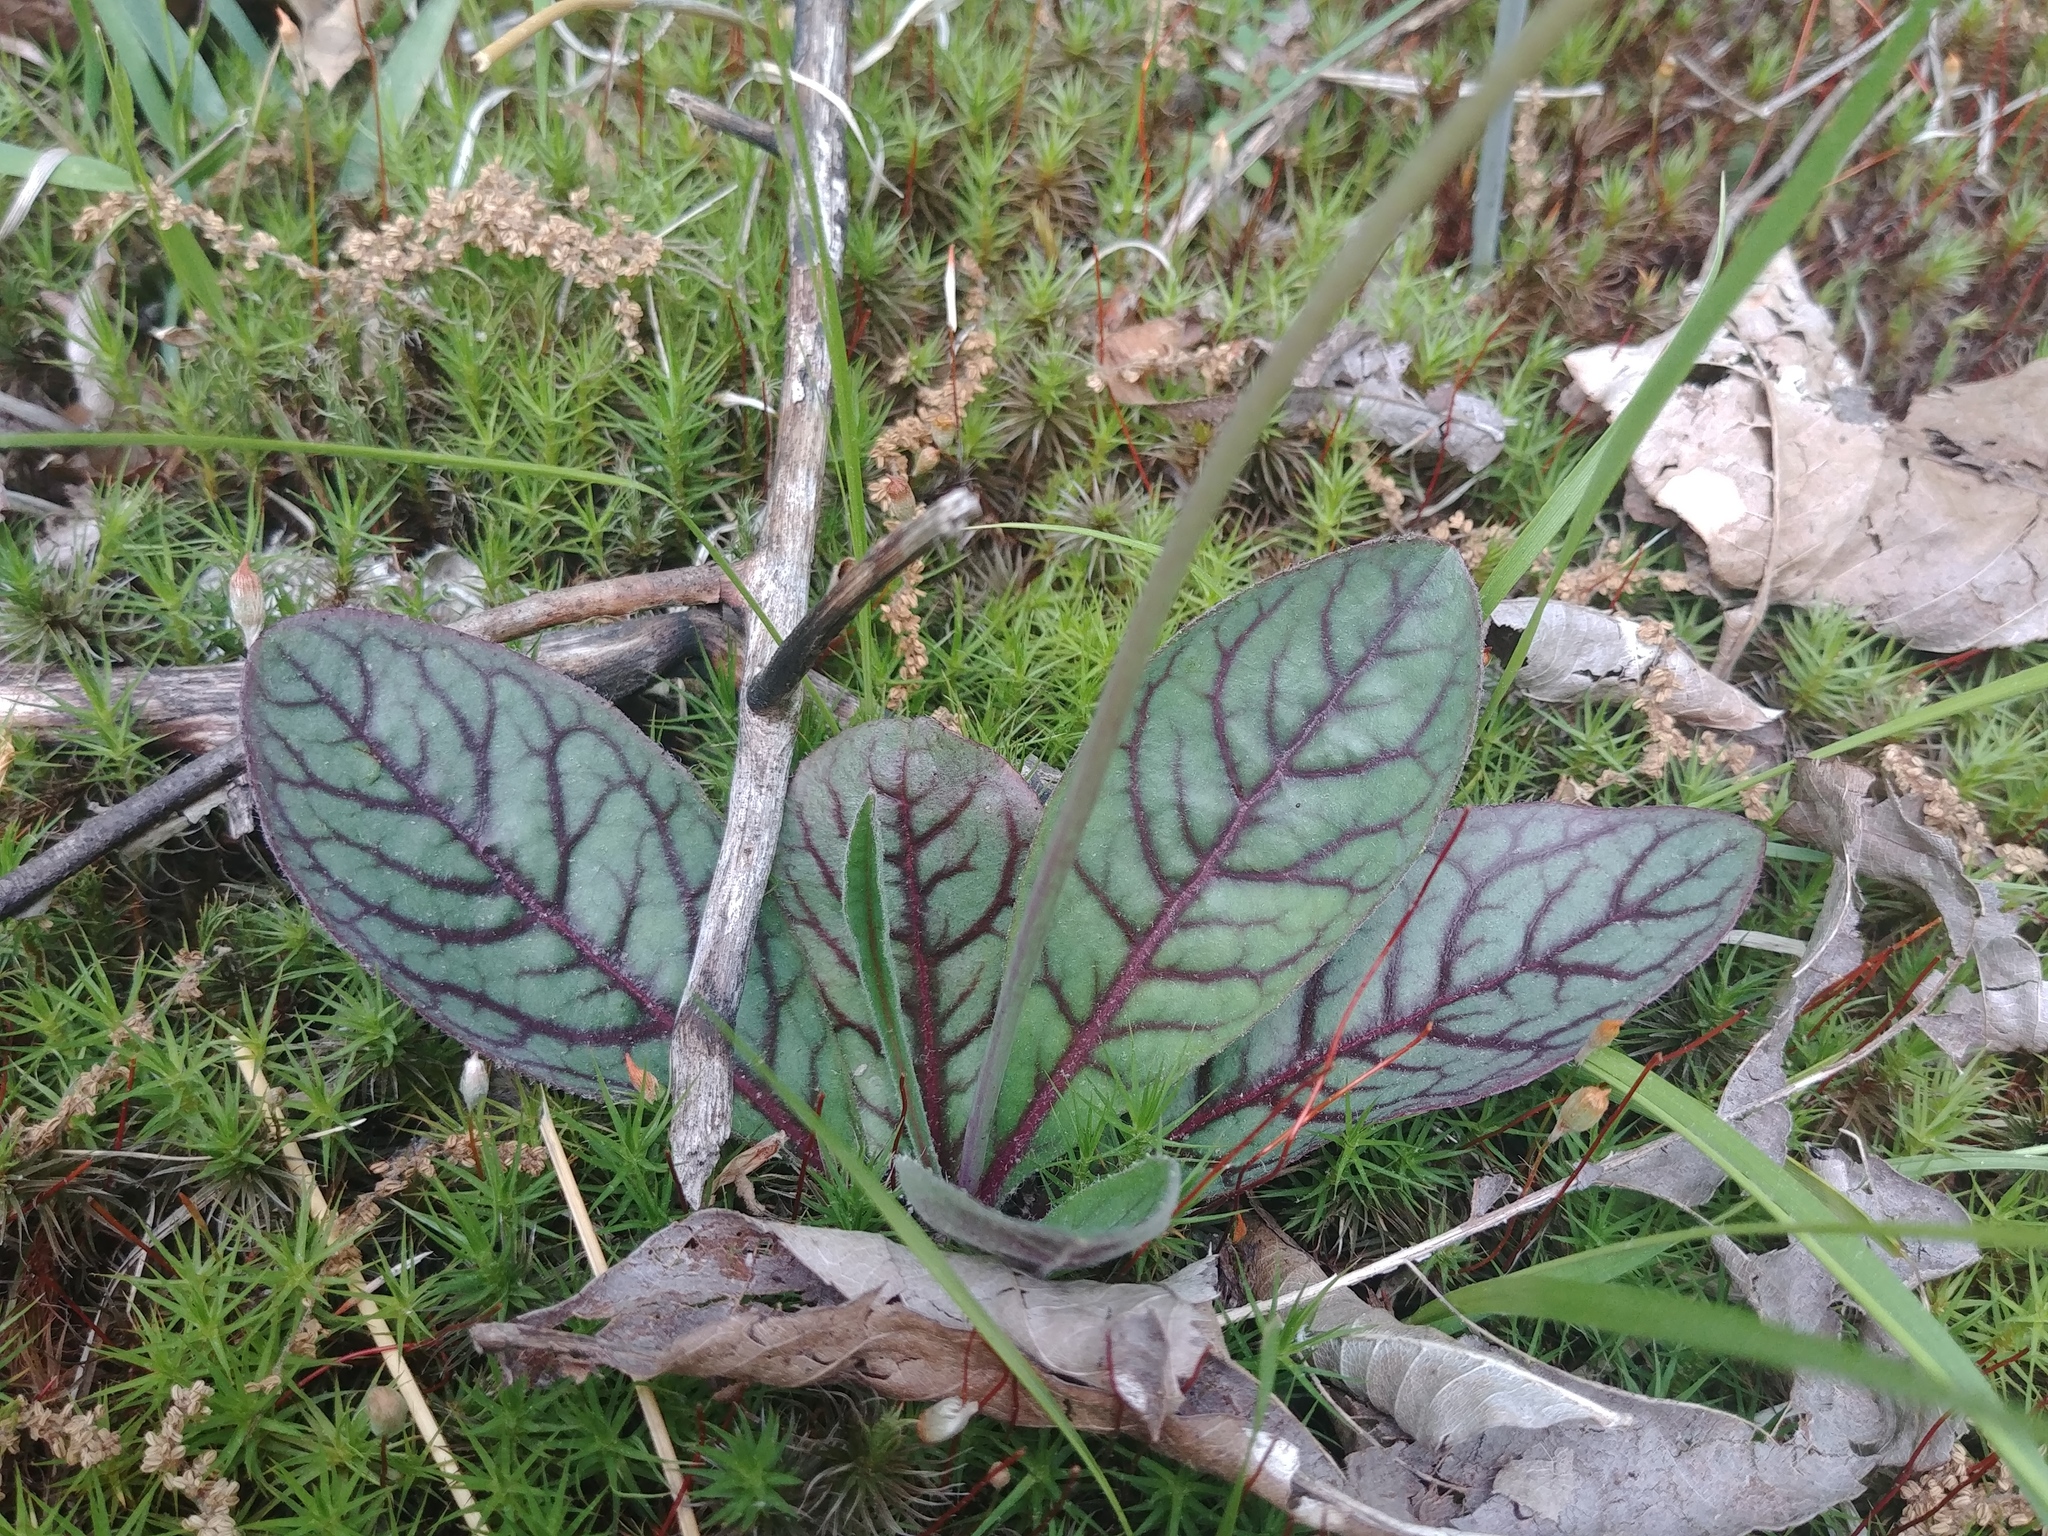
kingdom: Plantae
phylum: Tracheophyta
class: Magnoliopsida
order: Asterales
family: Asteraceae
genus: Hieracium
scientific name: Hieracium venosum
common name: Rattlesnake hawkweed
